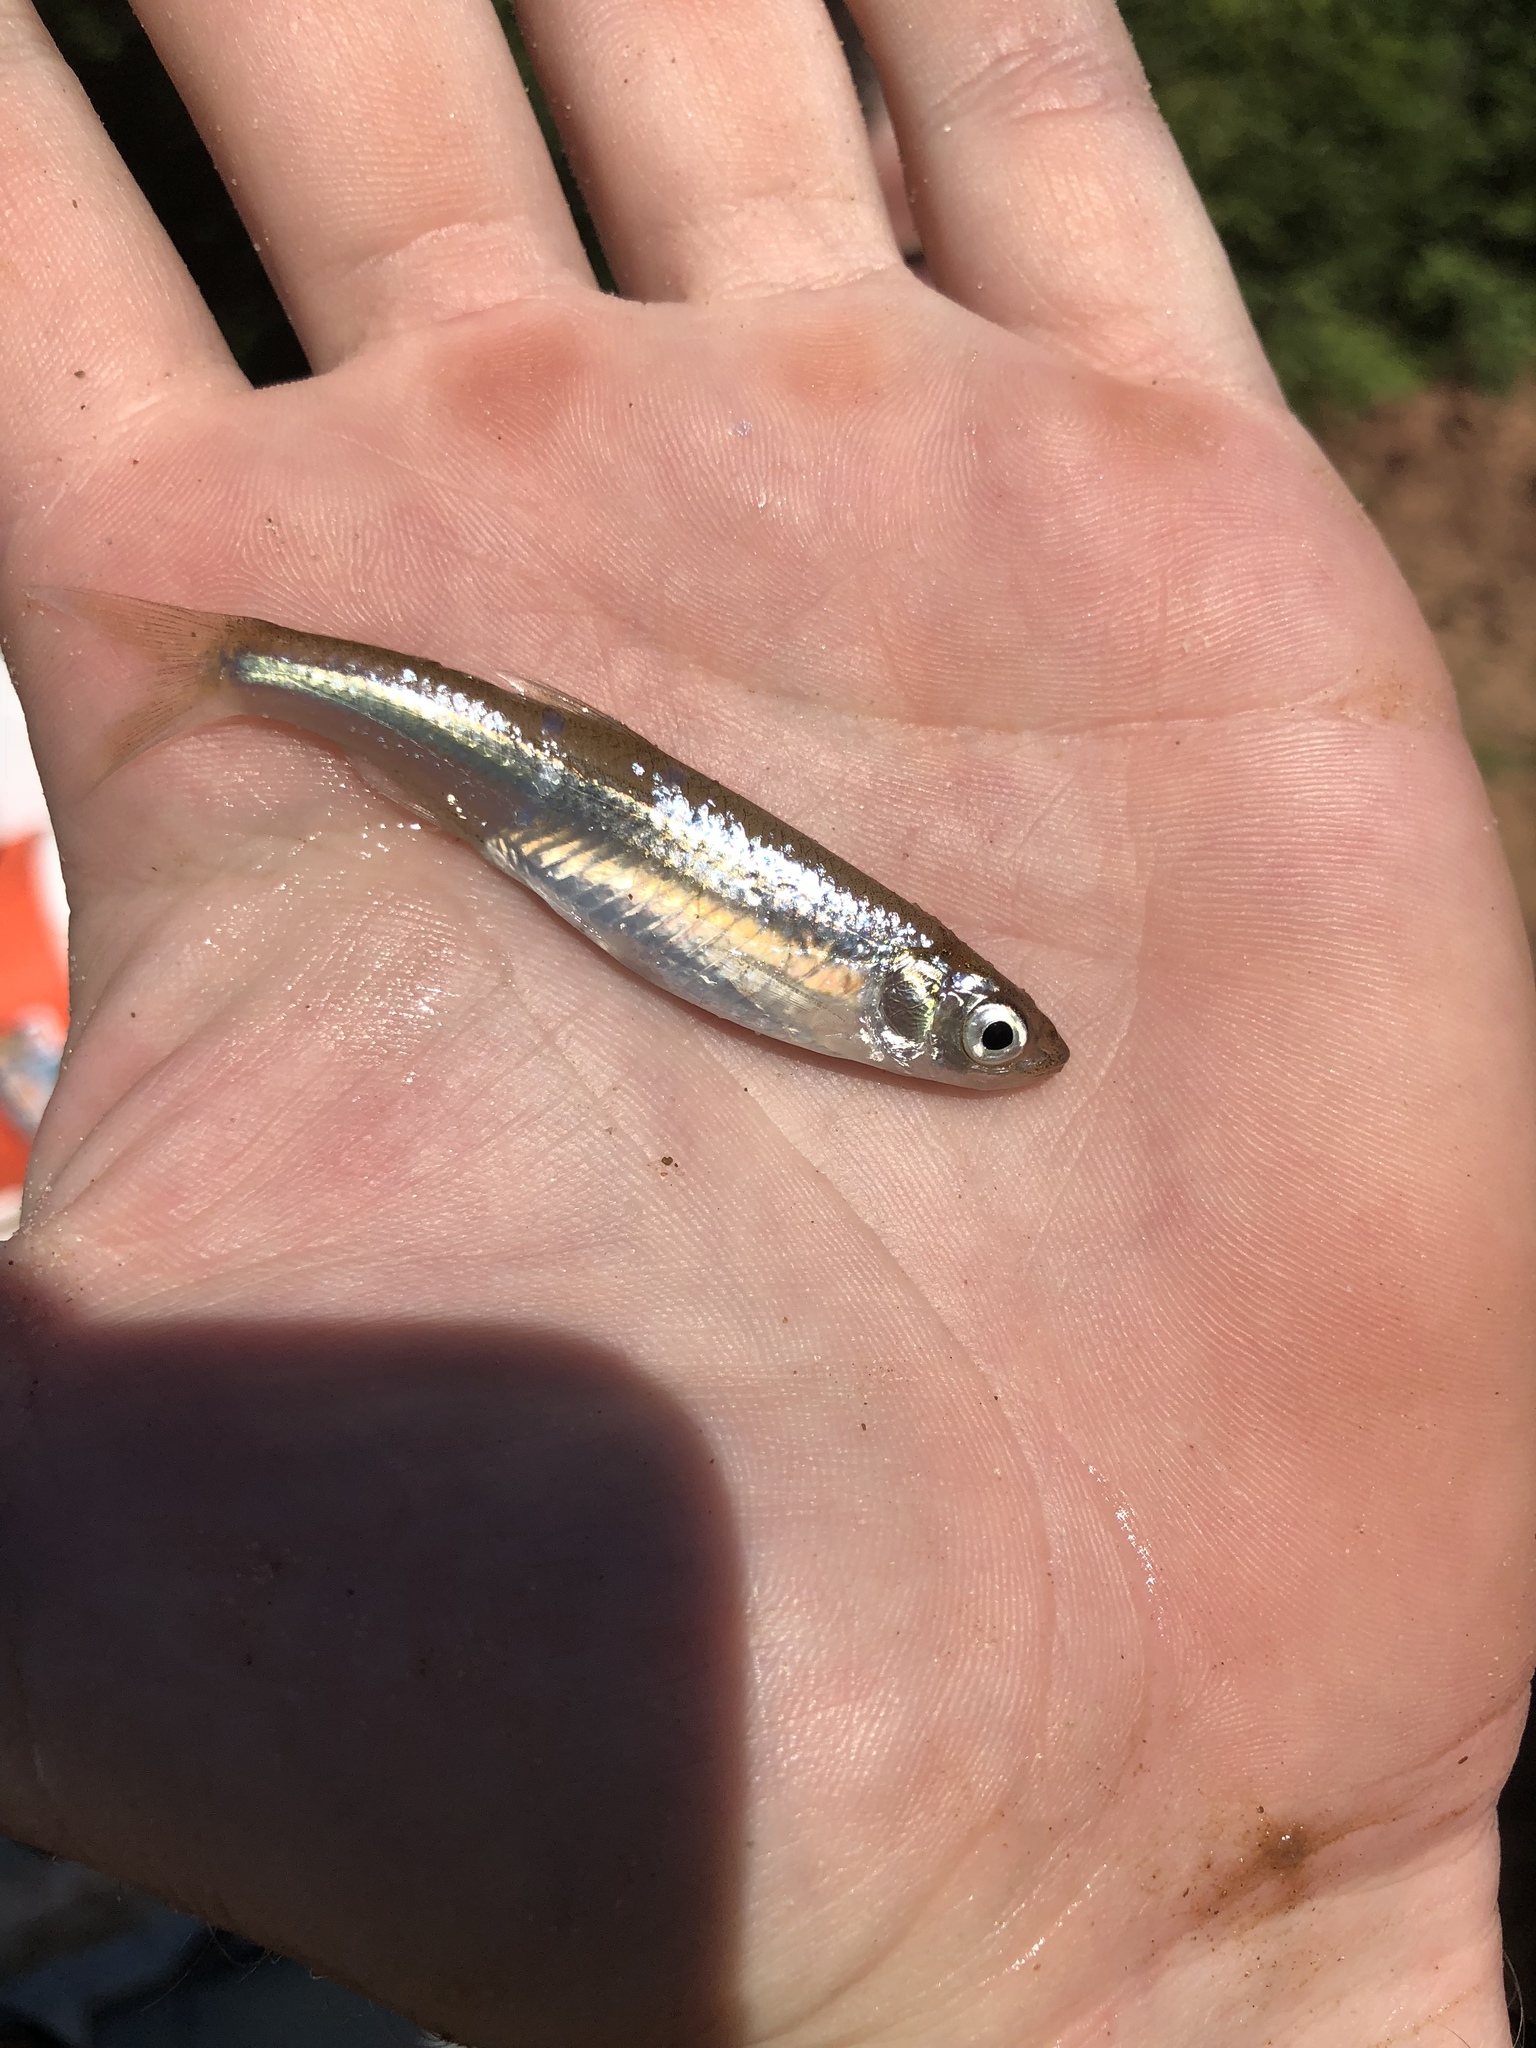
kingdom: Animalia
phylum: Chordata
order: Cypriniformes
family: Cyprinidae
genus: Notropis
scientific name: Notropis atherinoides
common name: Emerald shiner
